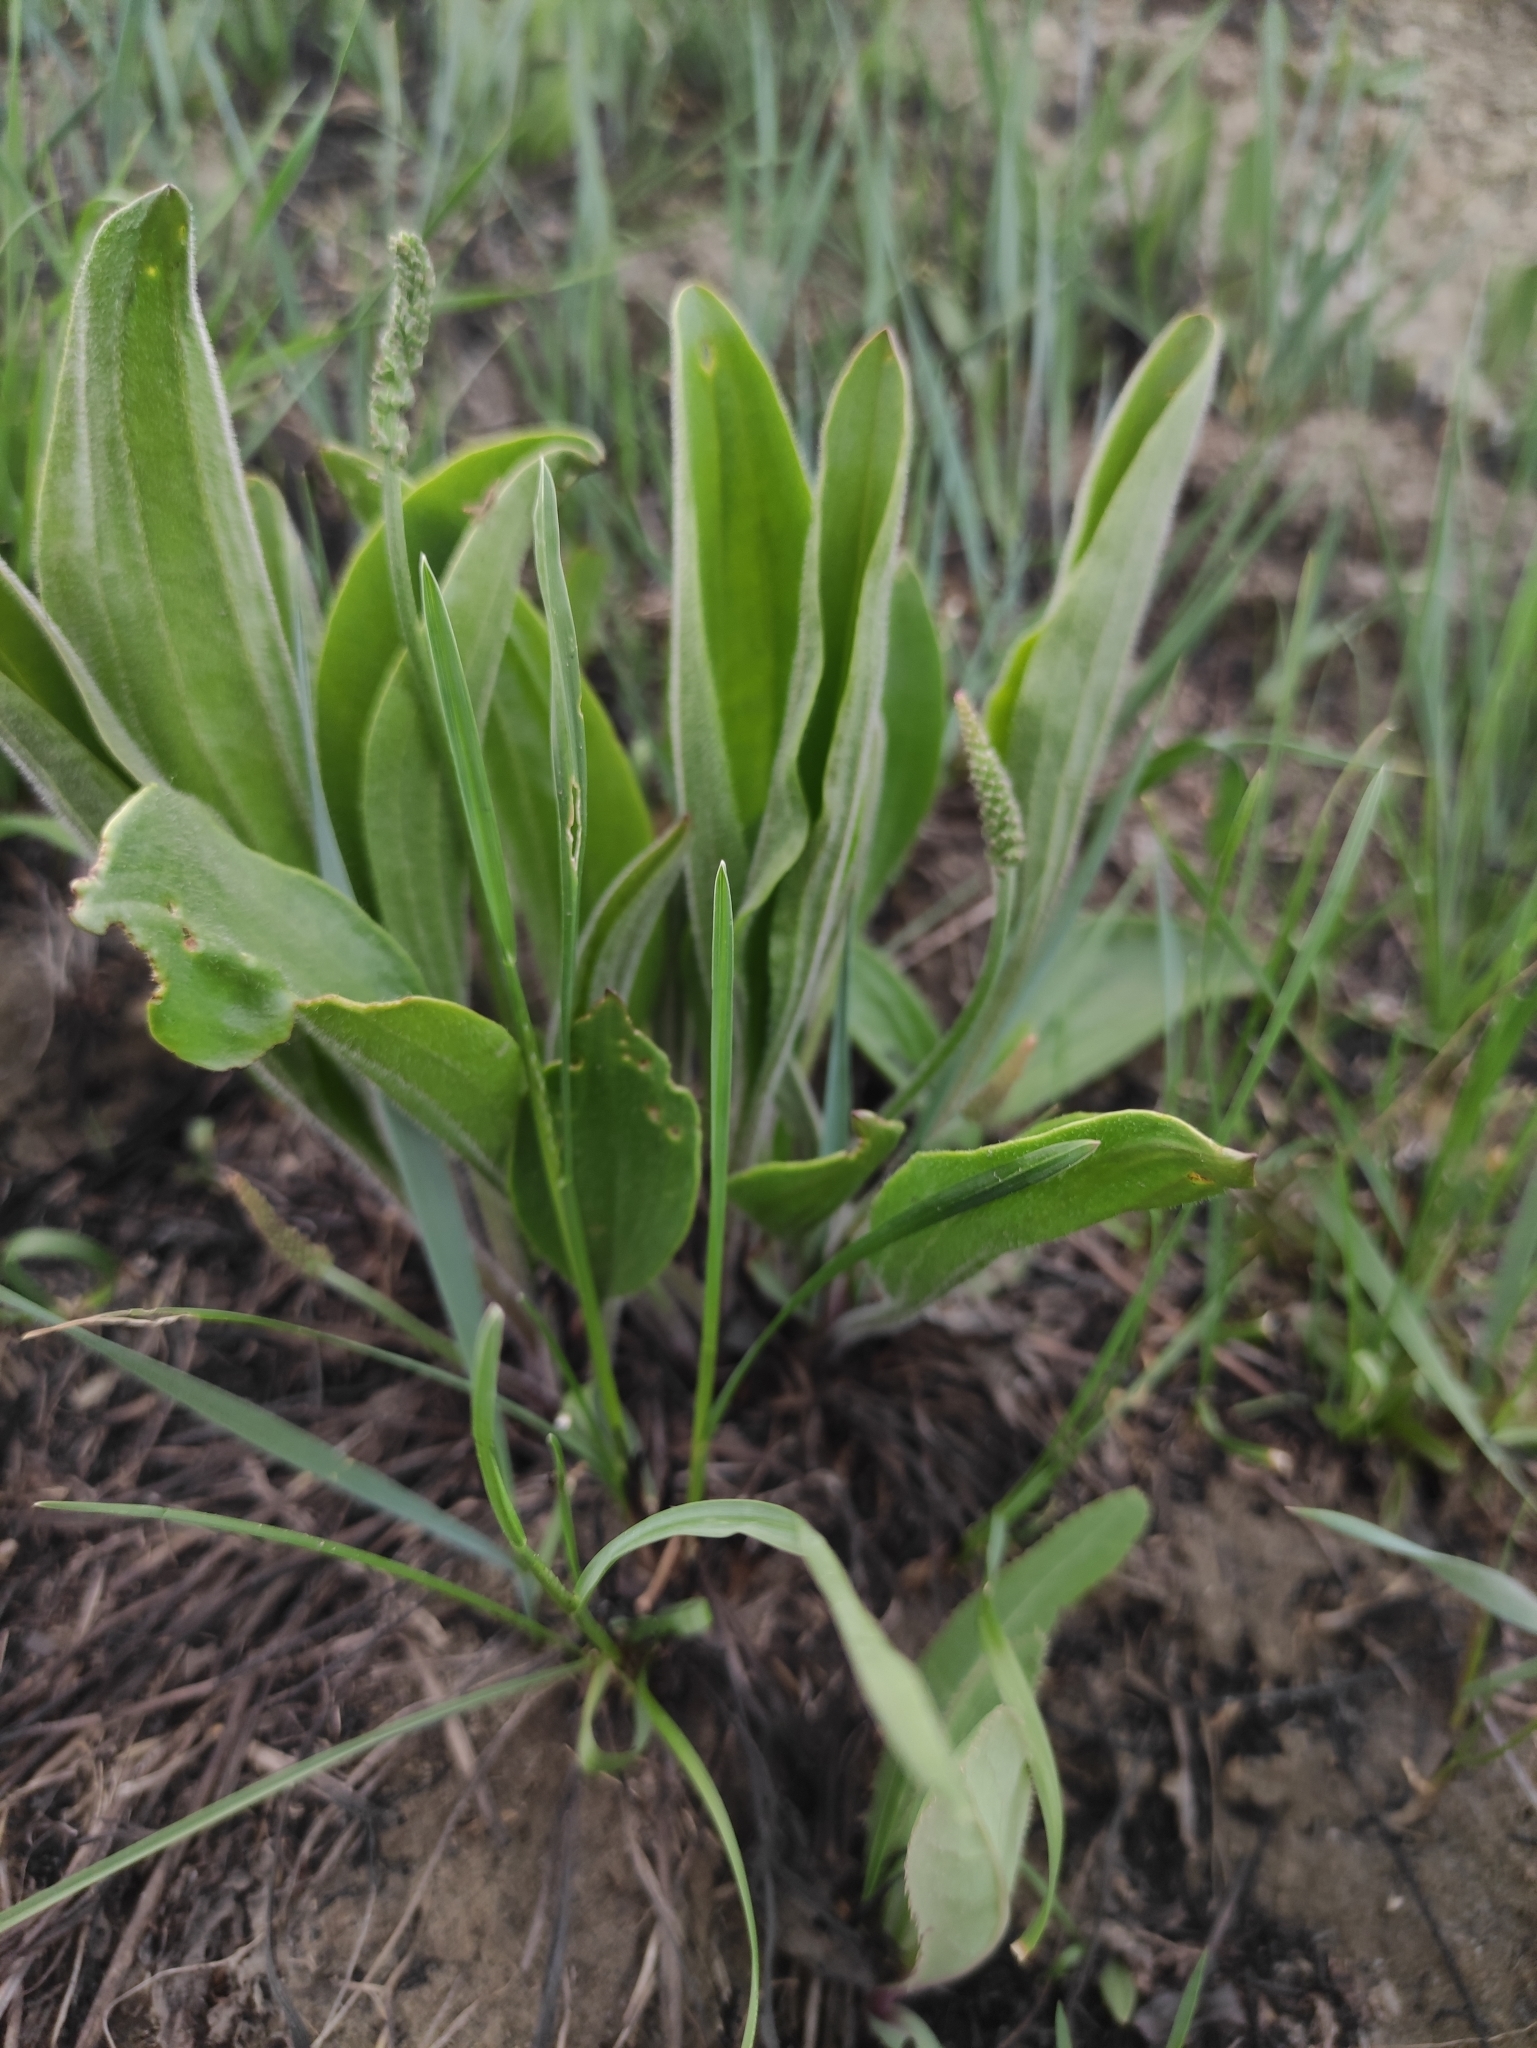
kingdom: Plantae
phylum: Tracheophyta
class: Magnoliopsida
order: Lamiales
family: Plantaginaceae
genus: Plantago
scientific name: Plantago urvillei
